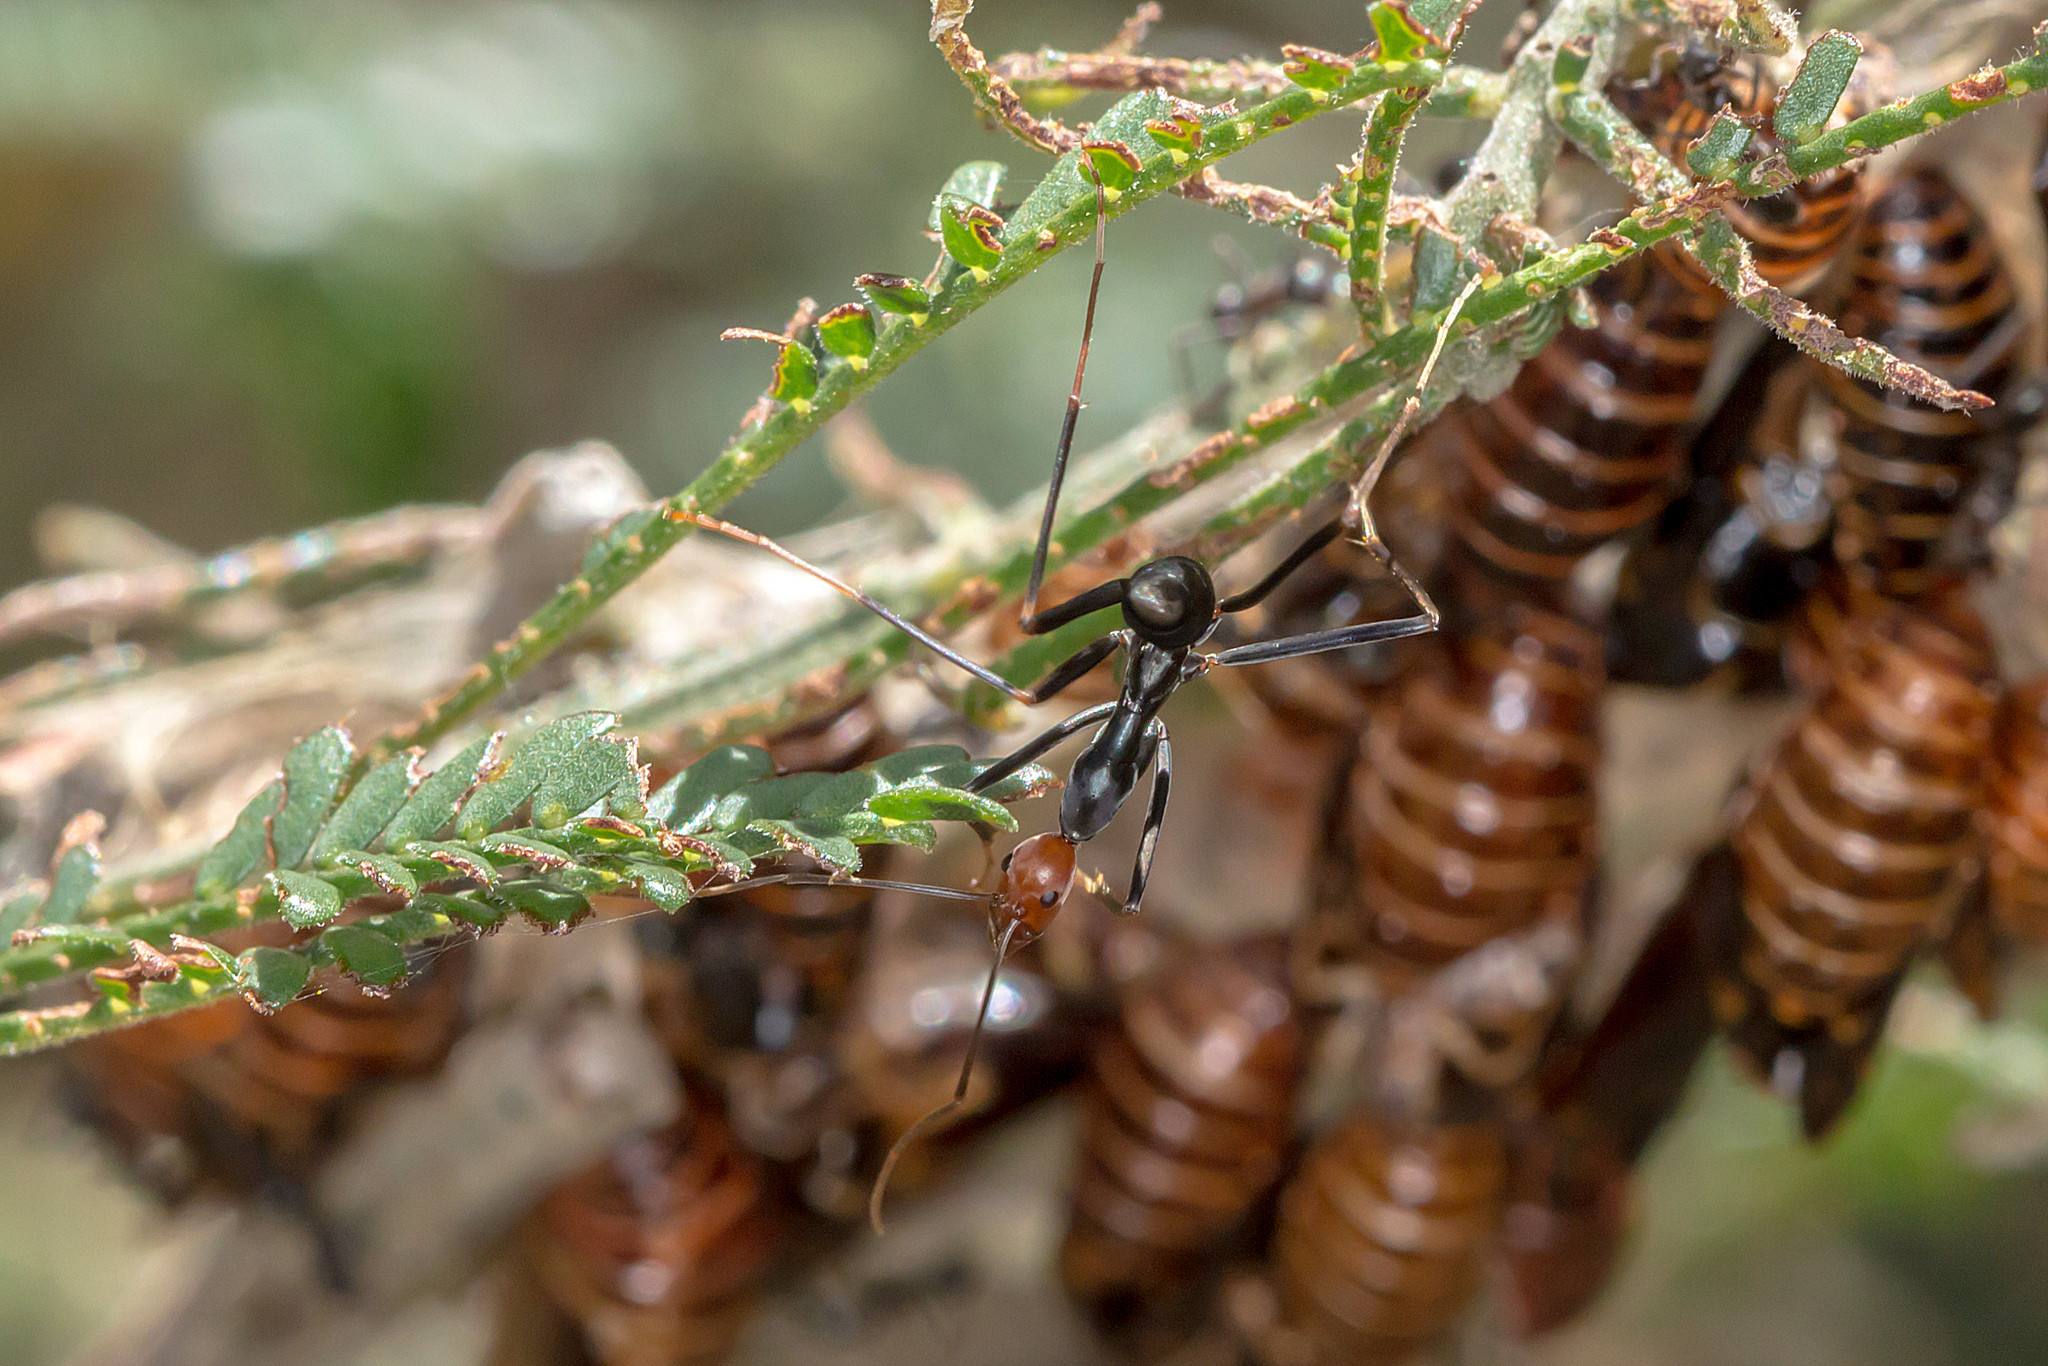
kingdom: Animalia
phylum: Arthropoda
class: Insecta
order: Hymenoptera
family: Formicidae
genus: Leptomyrmex
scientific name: Leptomyrmex erythrocephalus
